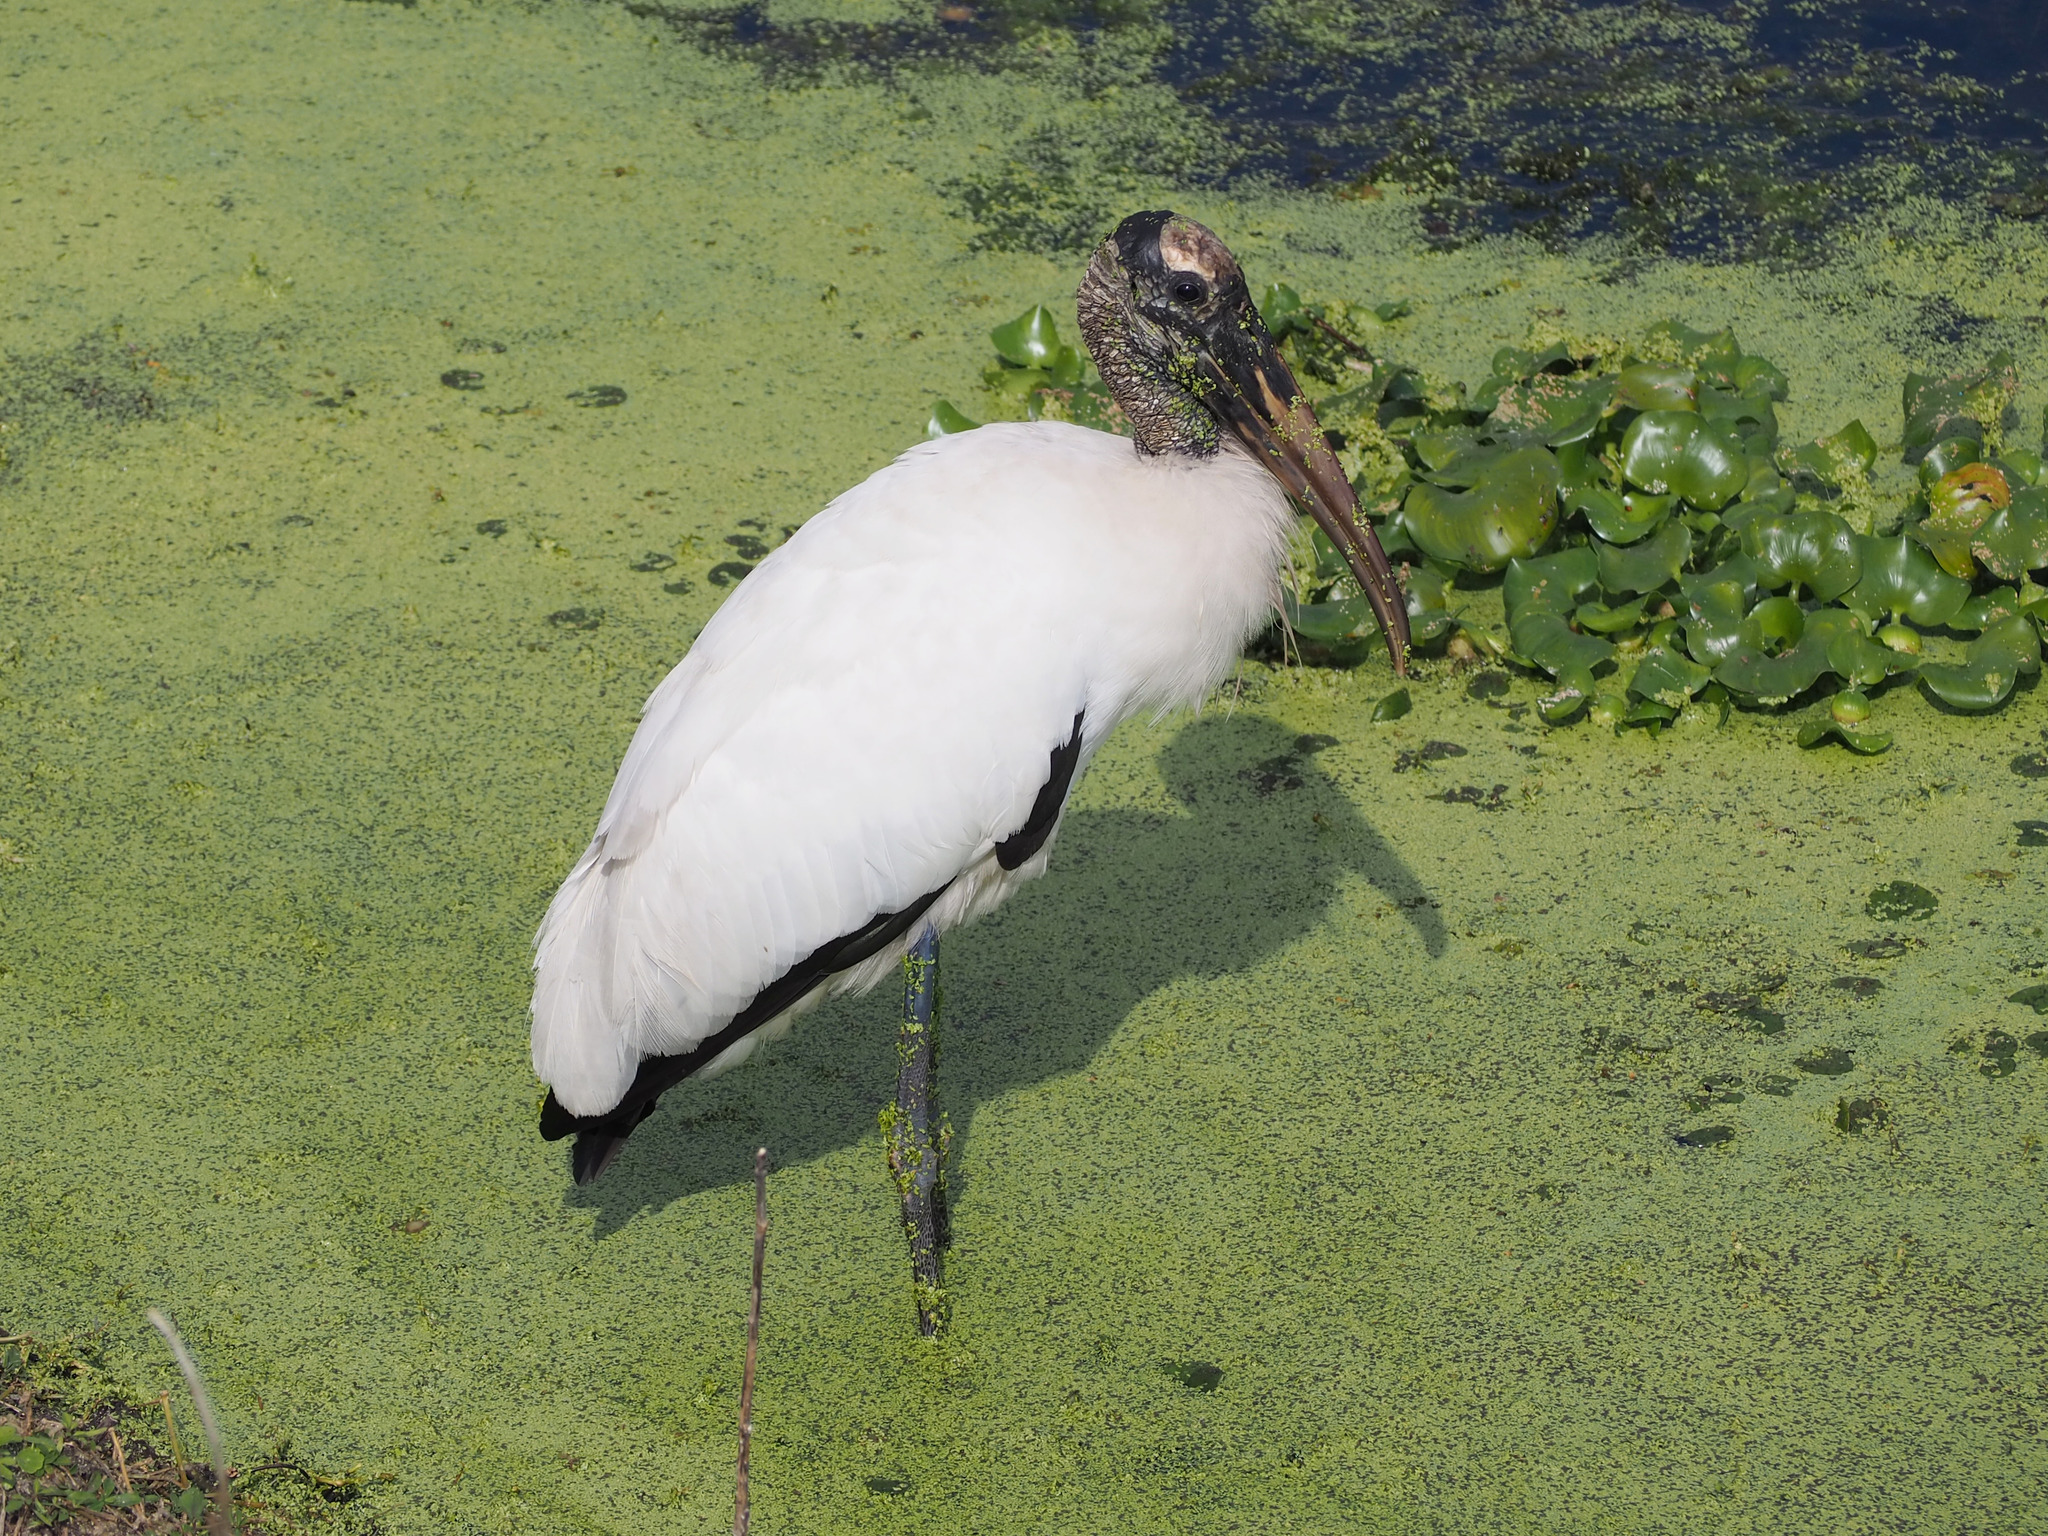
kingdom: Animalia
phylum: Chordata
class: Aves
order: Ciconiiformes
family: Ciconiidae
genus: Mycteria
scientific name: Mycteria americana
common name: Wood stork
